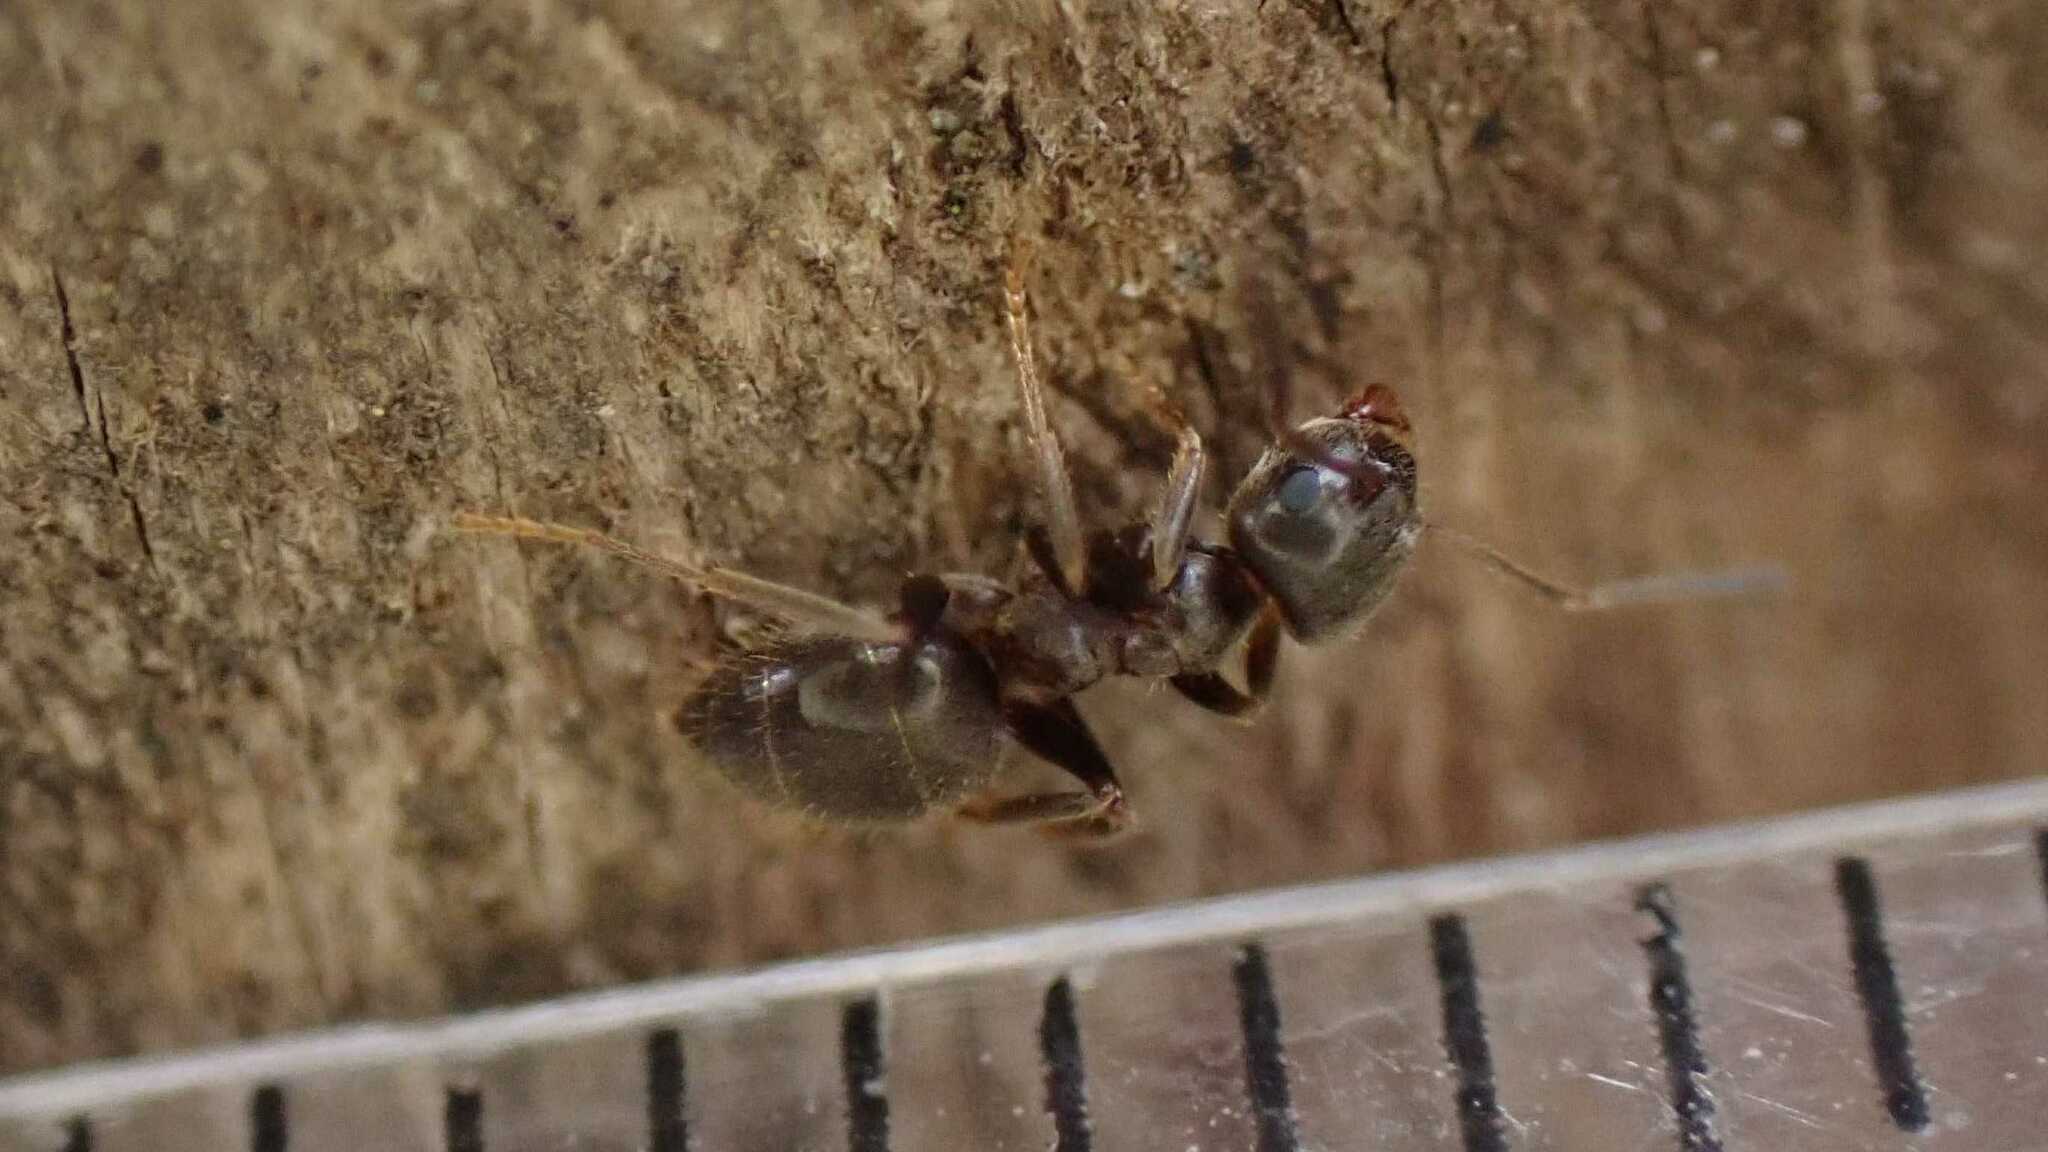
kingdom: Animalia
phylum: Arthropoda
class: Insecta
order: Hymenoptera
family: Formicidae
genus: Lasius
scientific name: Lasius
